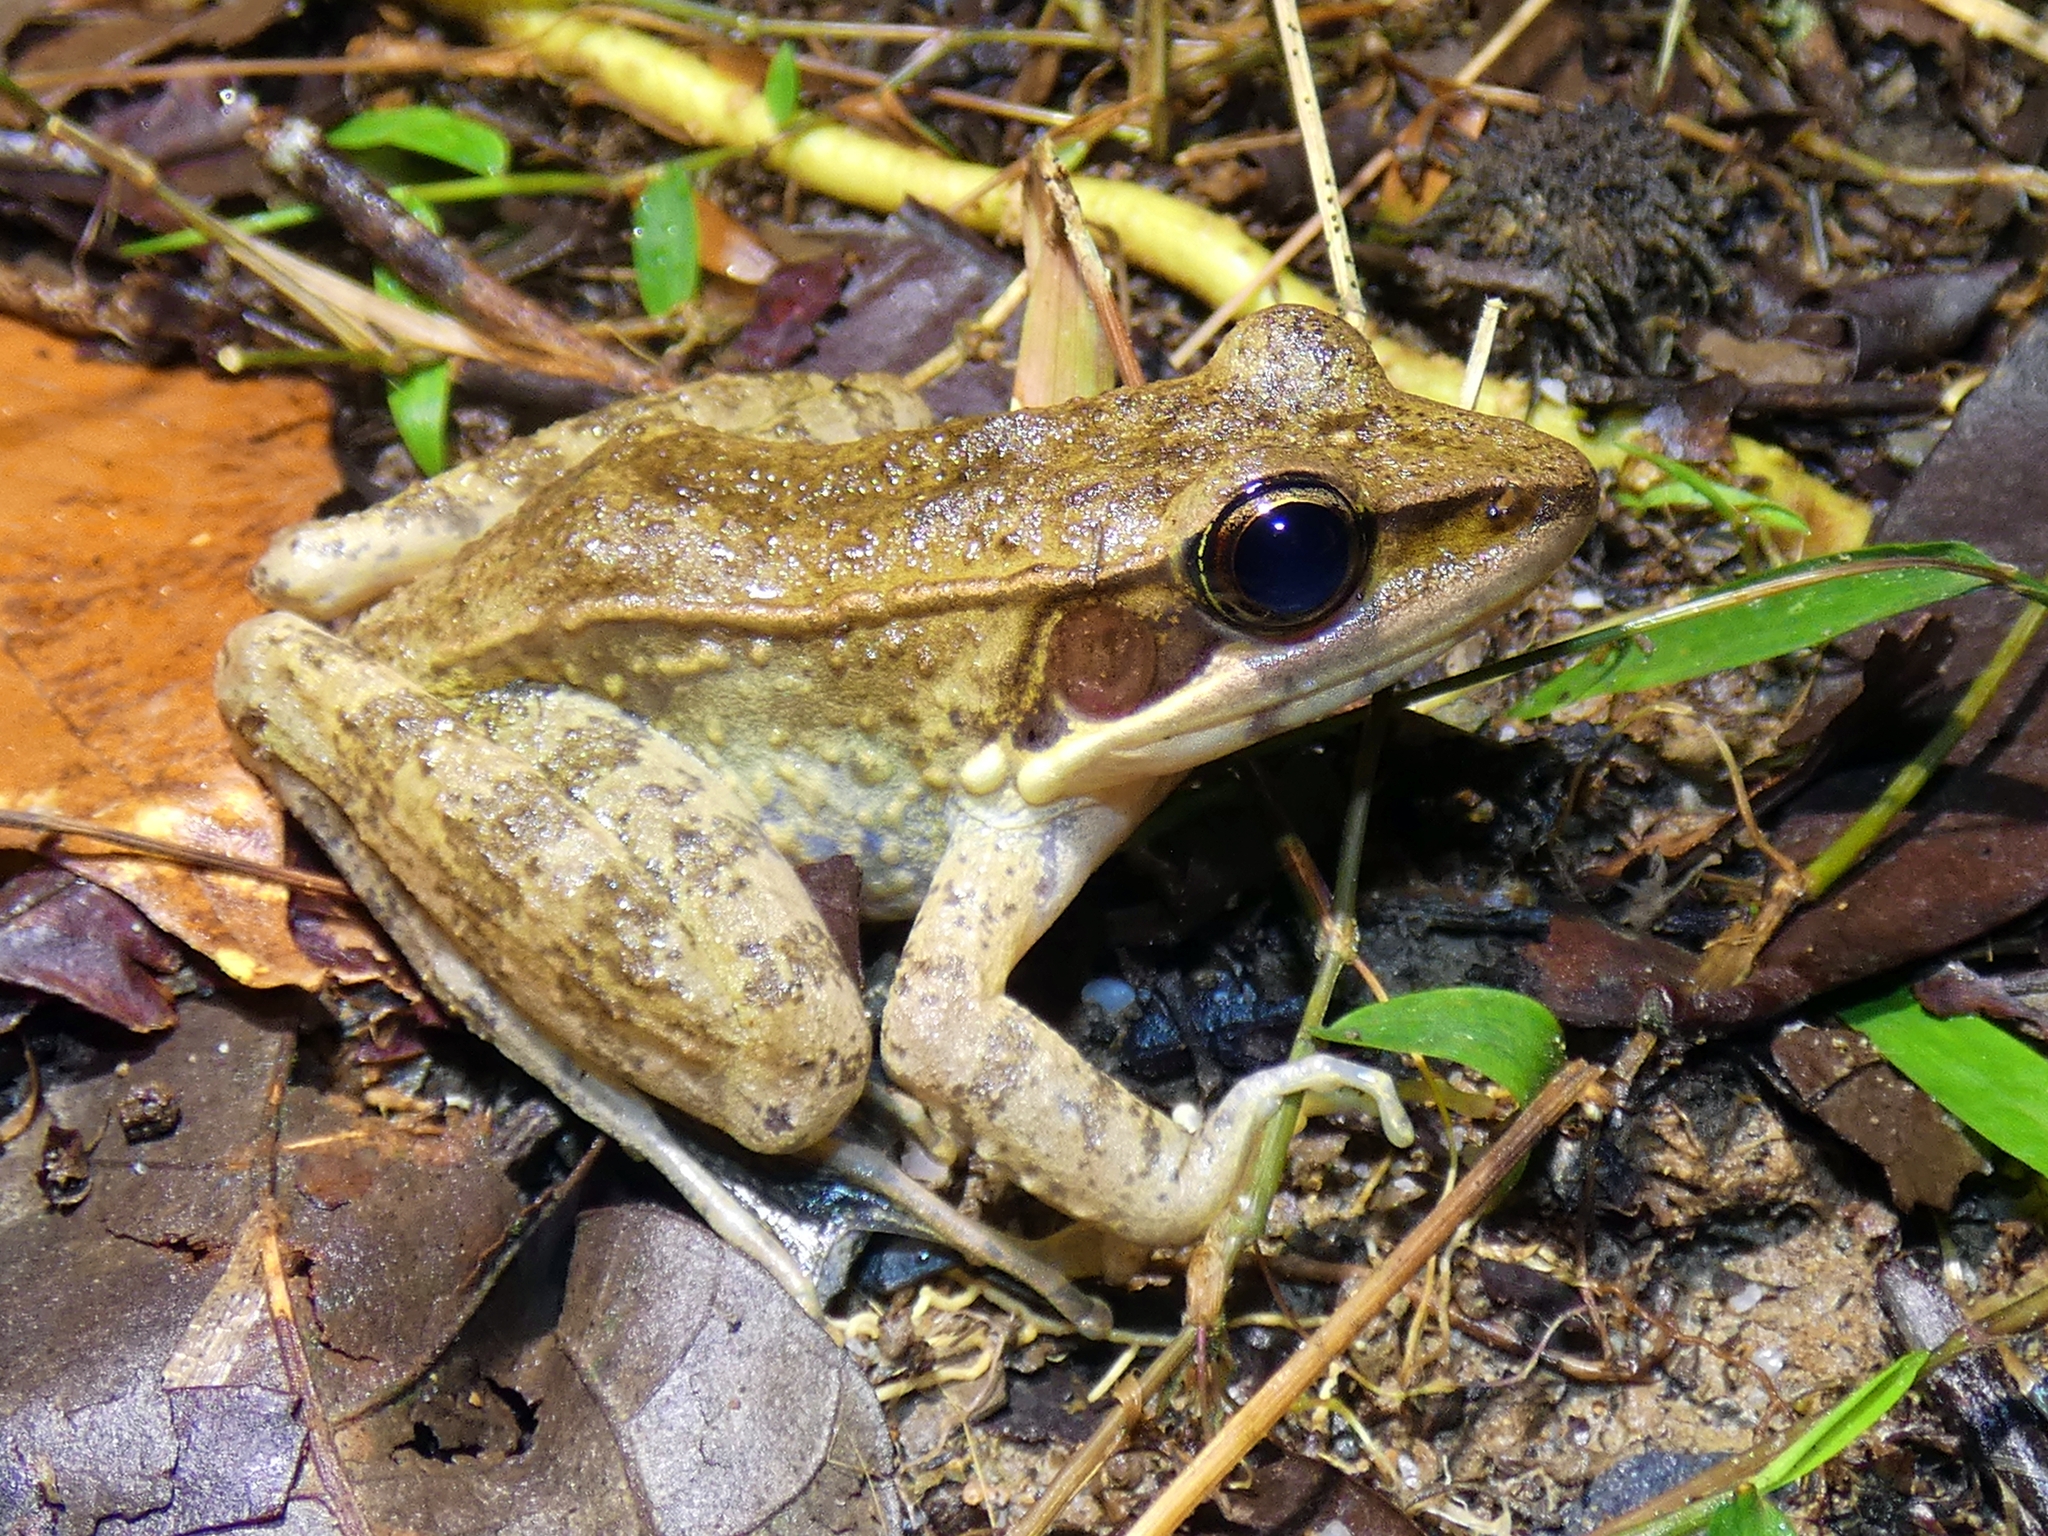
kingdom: Animalia
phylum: Chordata
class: Amphibia
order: Anura
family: Ranidae
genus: Papurana
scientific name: Papurana daemeli
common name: Arhem rana
